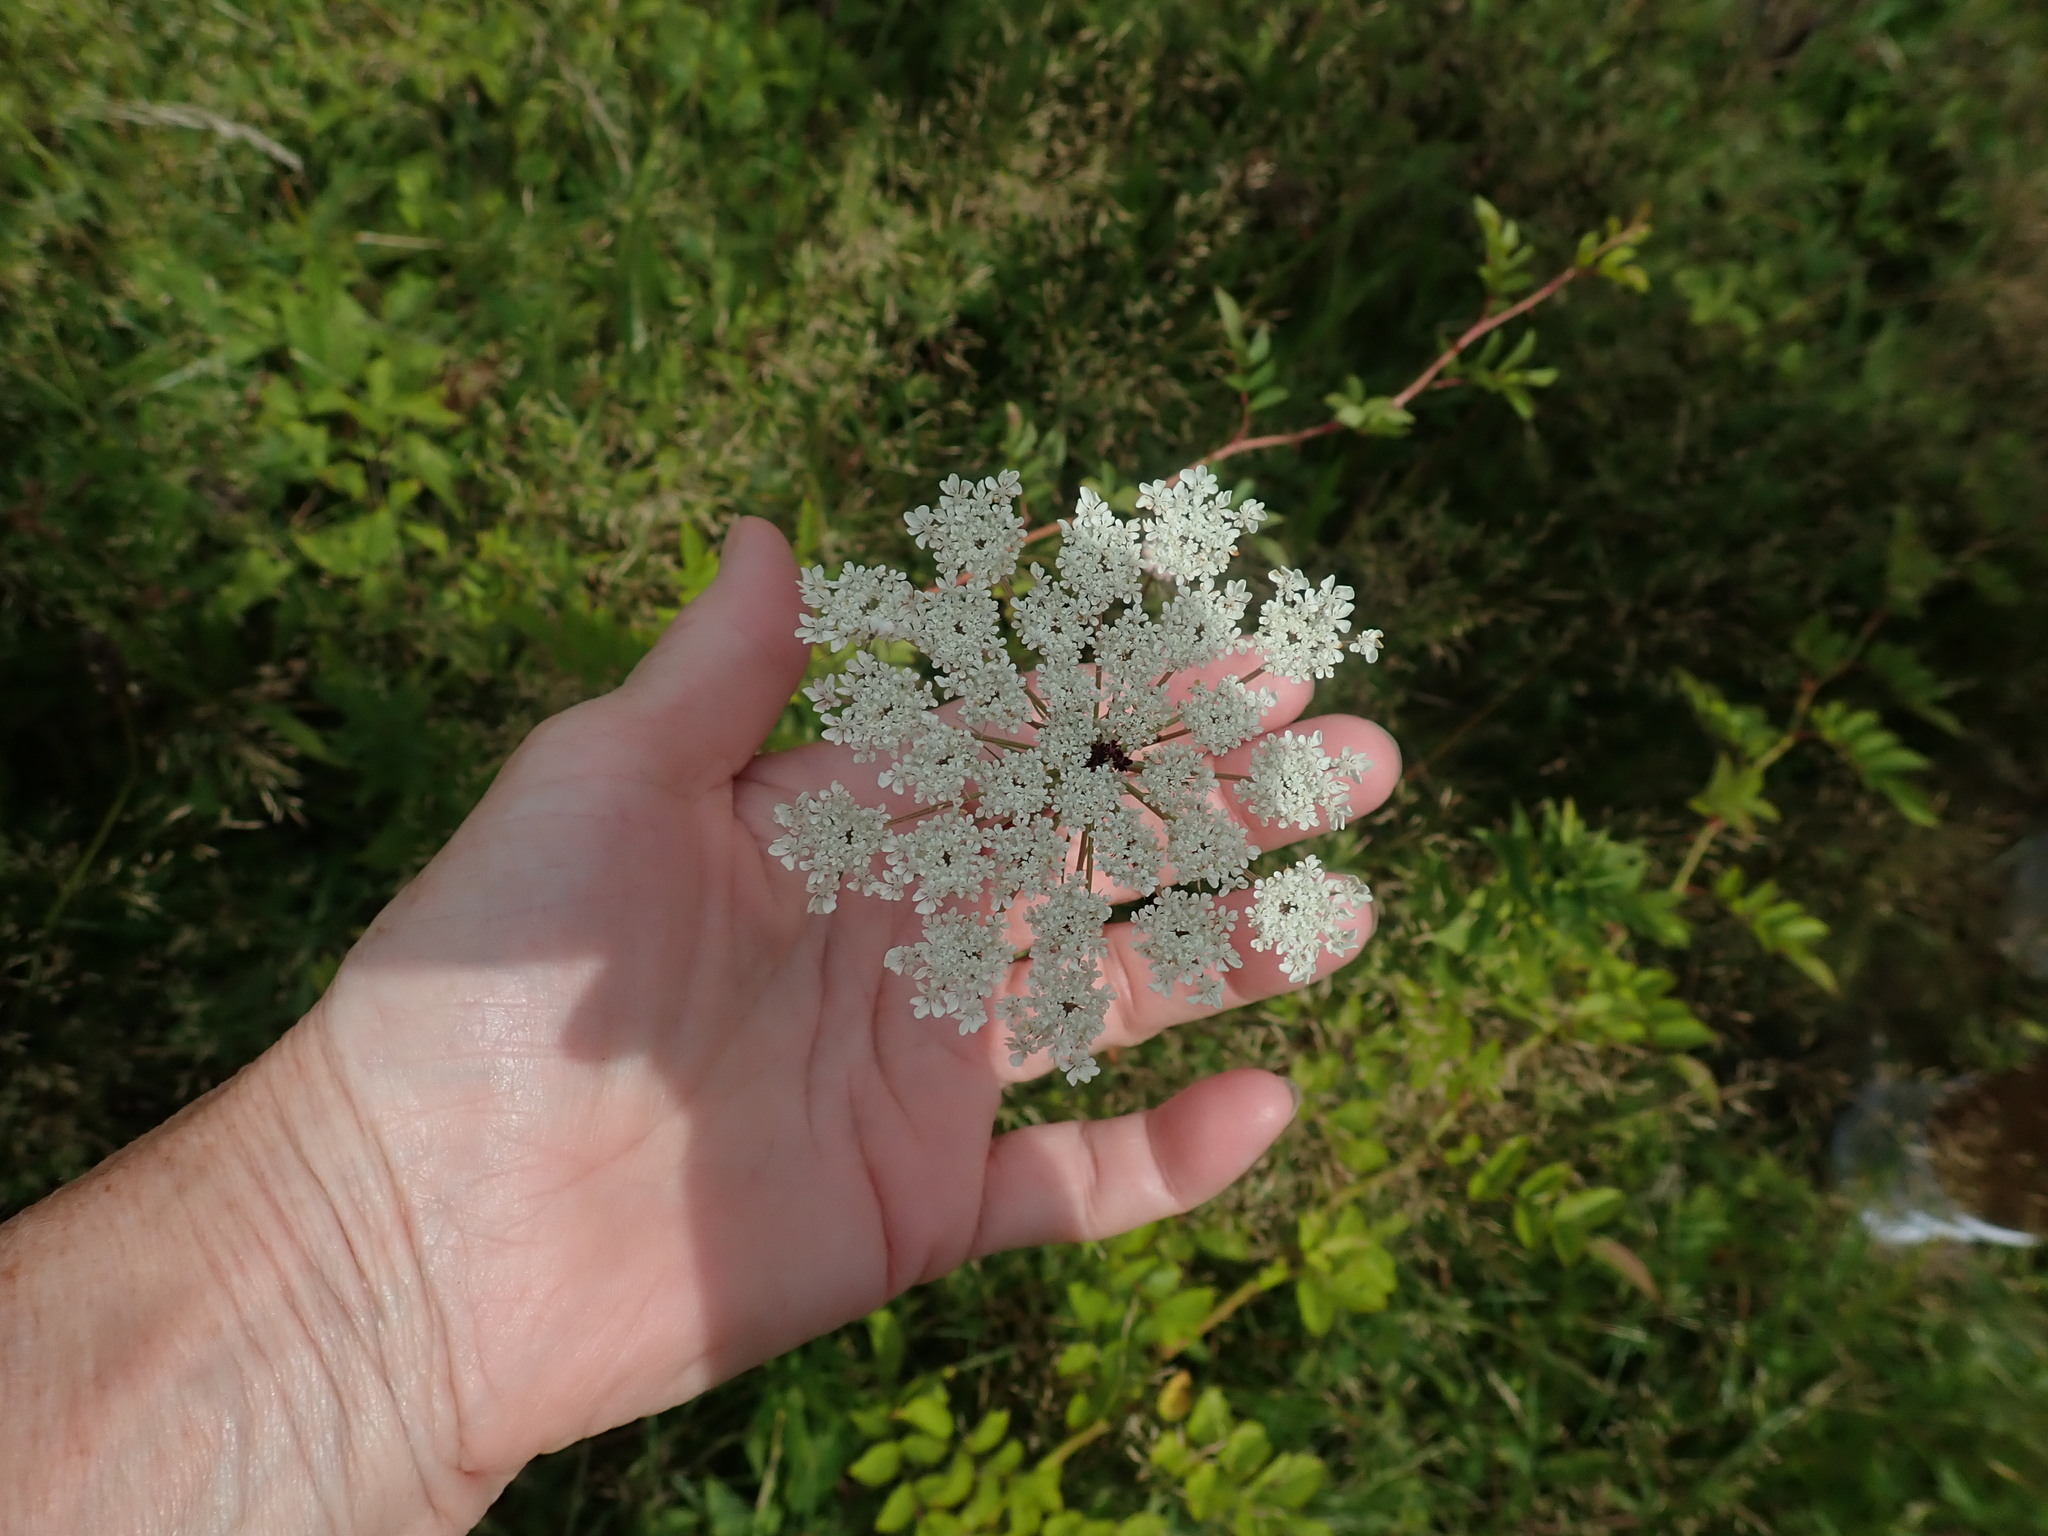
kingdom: Plantae
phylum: Tracheophyta
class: Magnoliopsida
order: Apiales
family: Apiaceae
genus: Daucus
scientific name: Daucus carota
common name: Wild carrot
